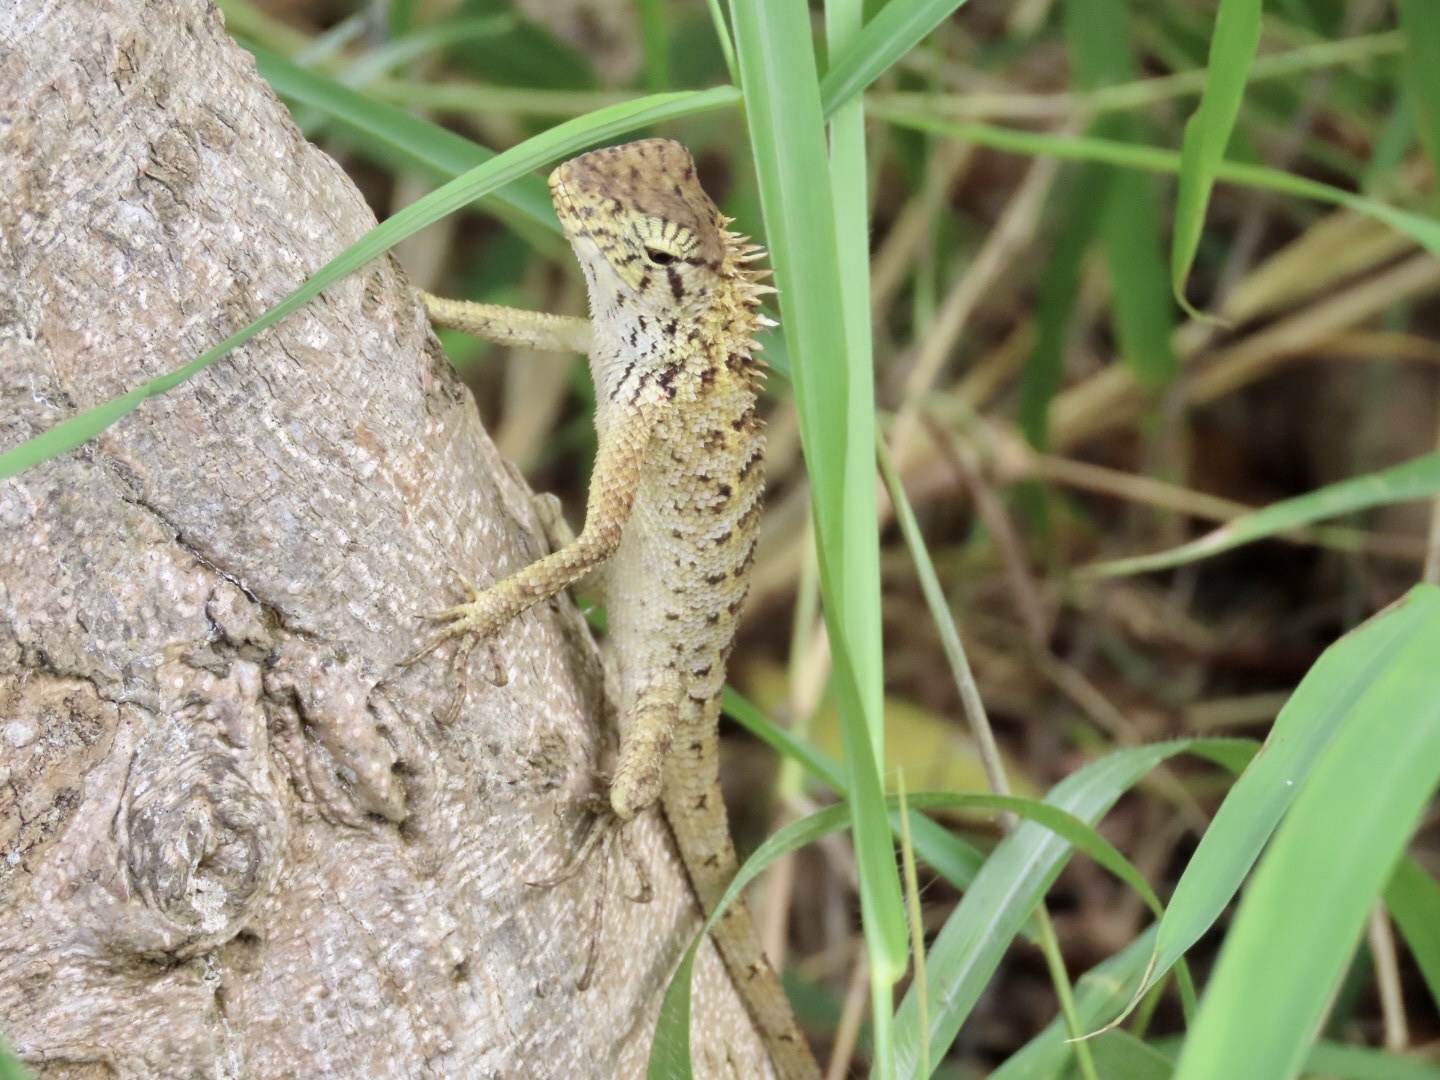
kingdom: Animalia
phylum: Chordata
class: Squamata
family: Agamidae
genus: Calotes
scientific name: Calotes versicolor
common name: Oriental garden lizard
